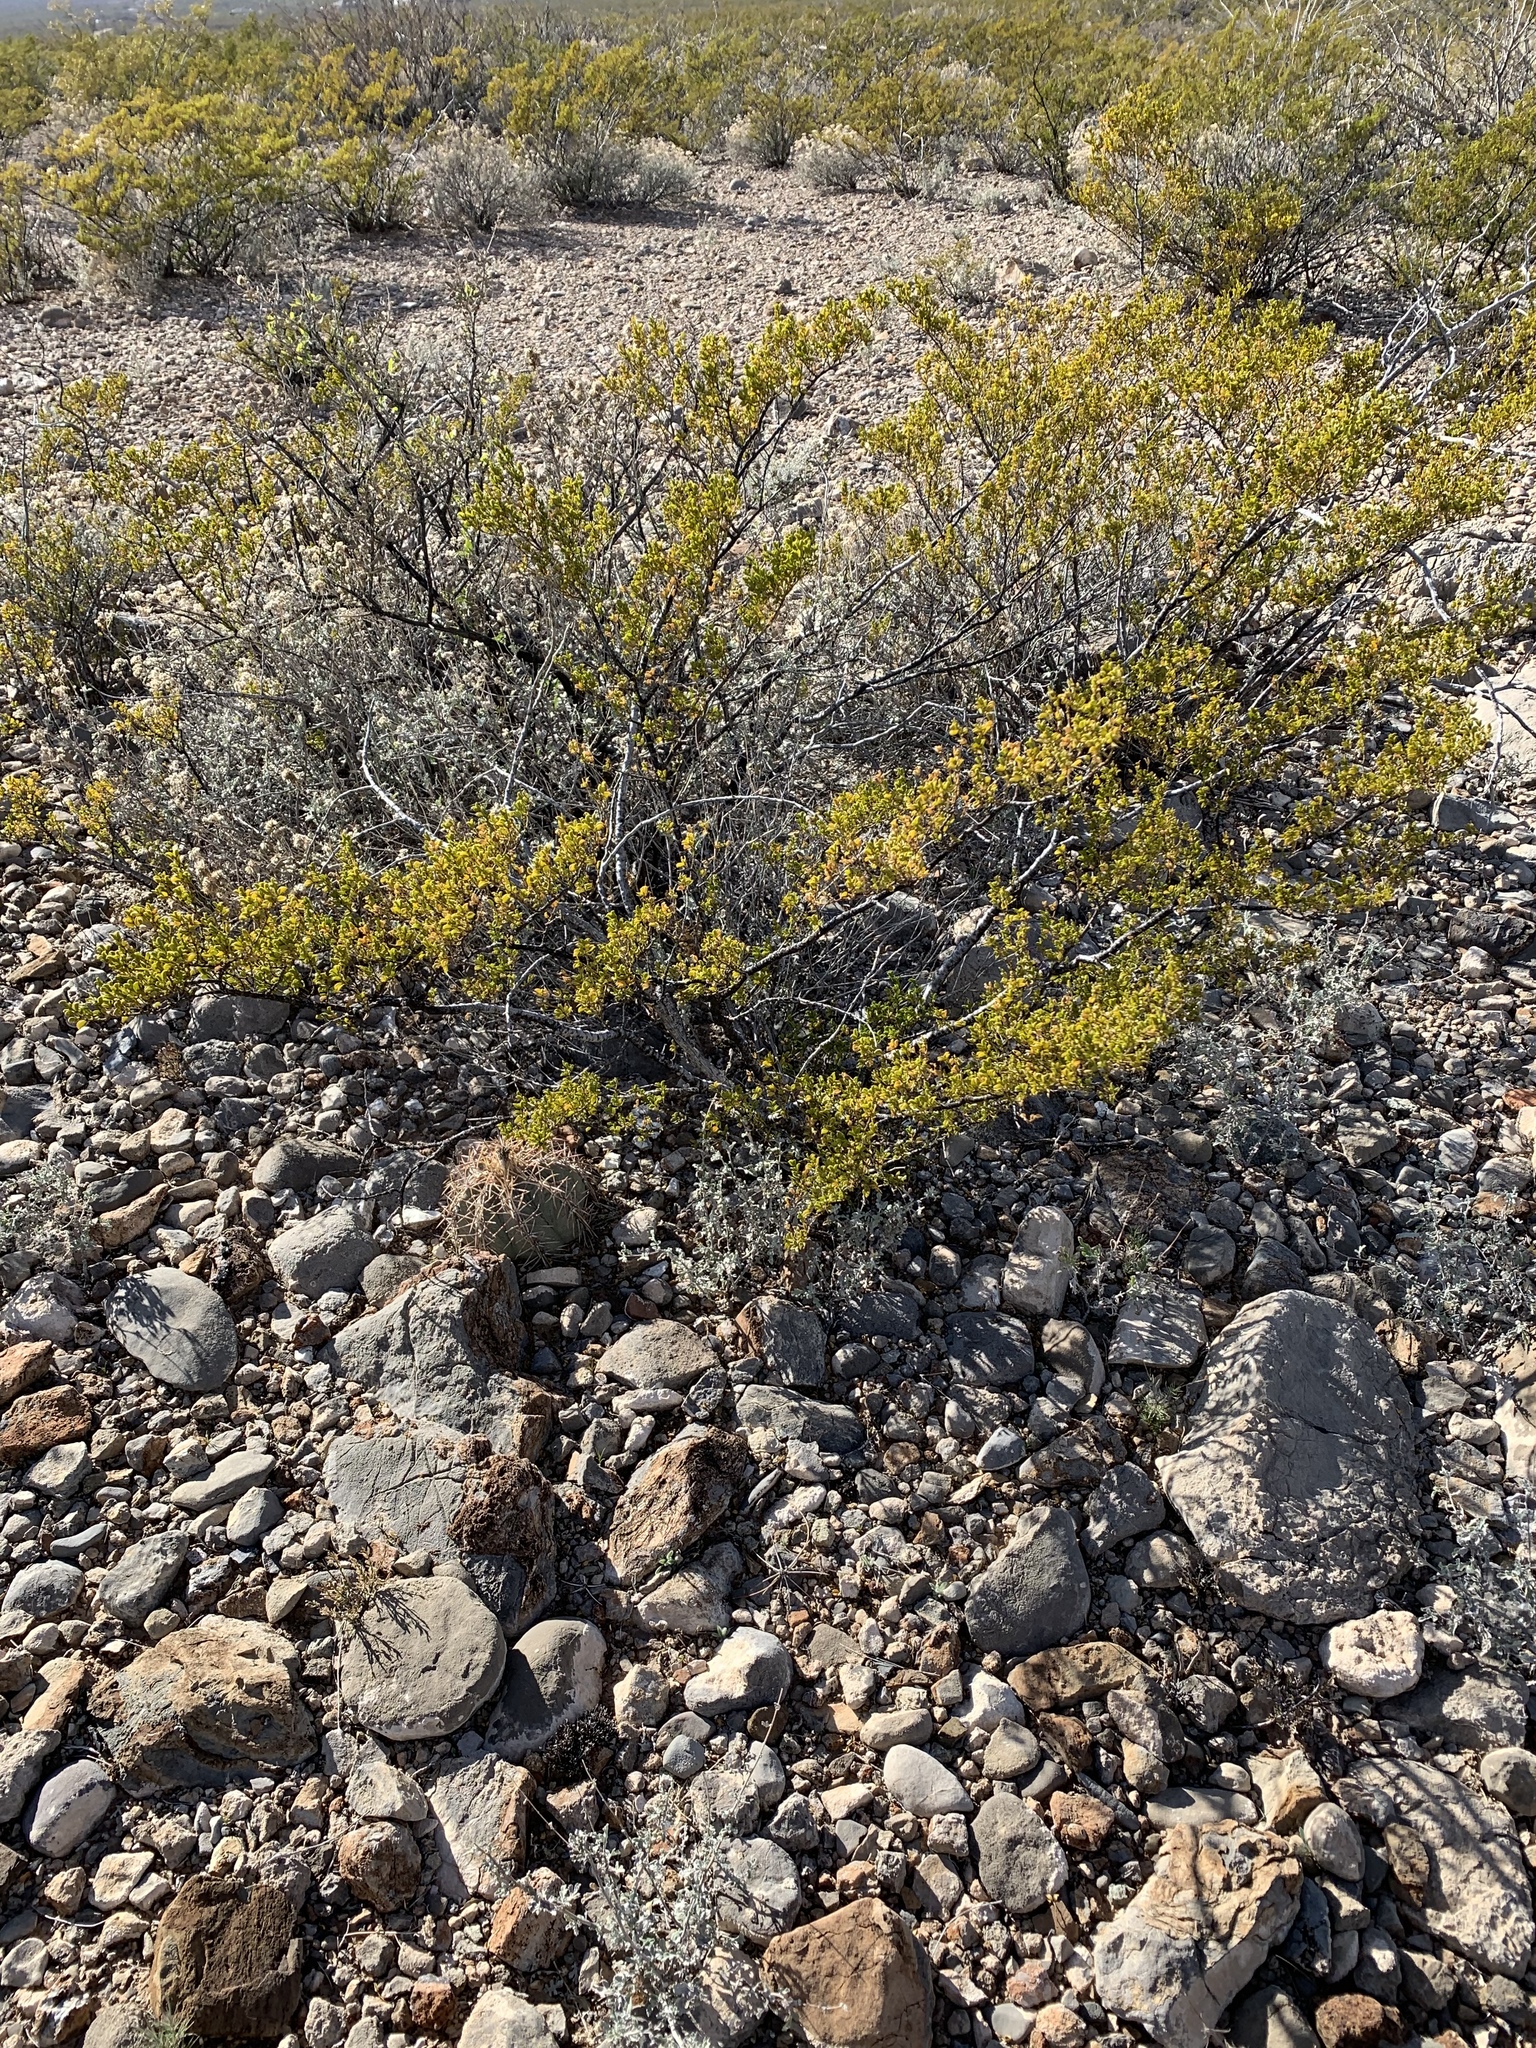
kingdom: Plantae
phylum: Tracheophyta
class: Magnoliopsida
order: Zygophyllales
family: Zygophyllaceae
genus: Larrea
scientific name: Larrea tridentata
